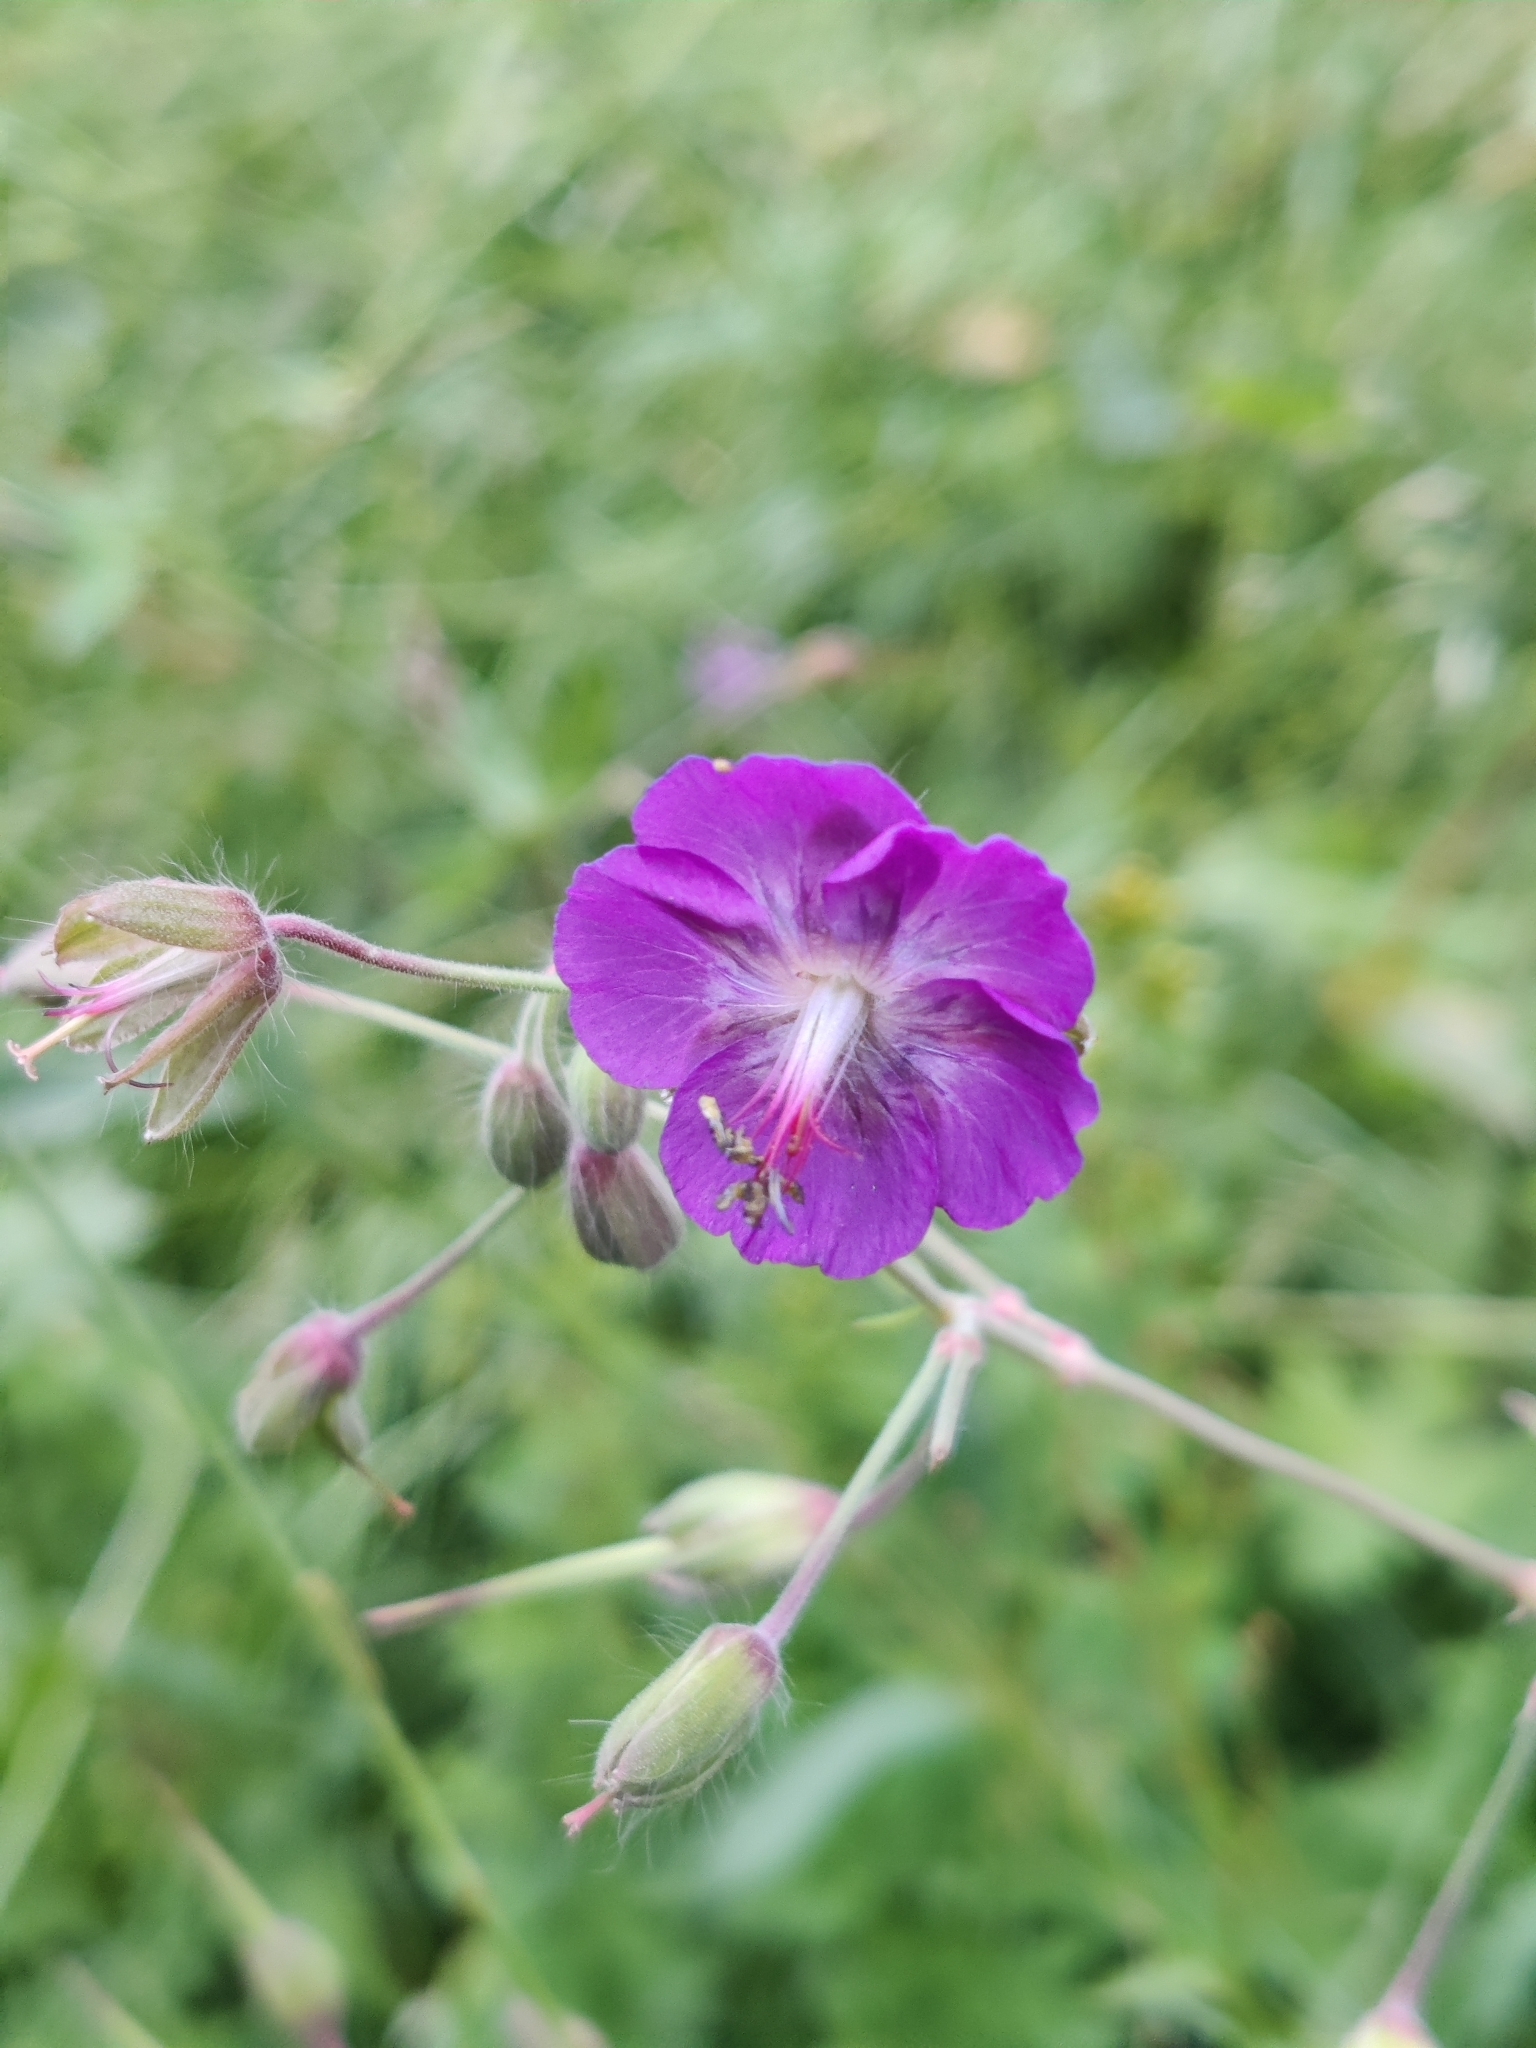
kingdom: Plantae
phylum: Tracheophyta
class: Magnoliopsida
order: Geraniales
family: Geraniaceae
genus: Geranium
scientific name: Geranium phaeum
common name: Dusky crane's-bill
